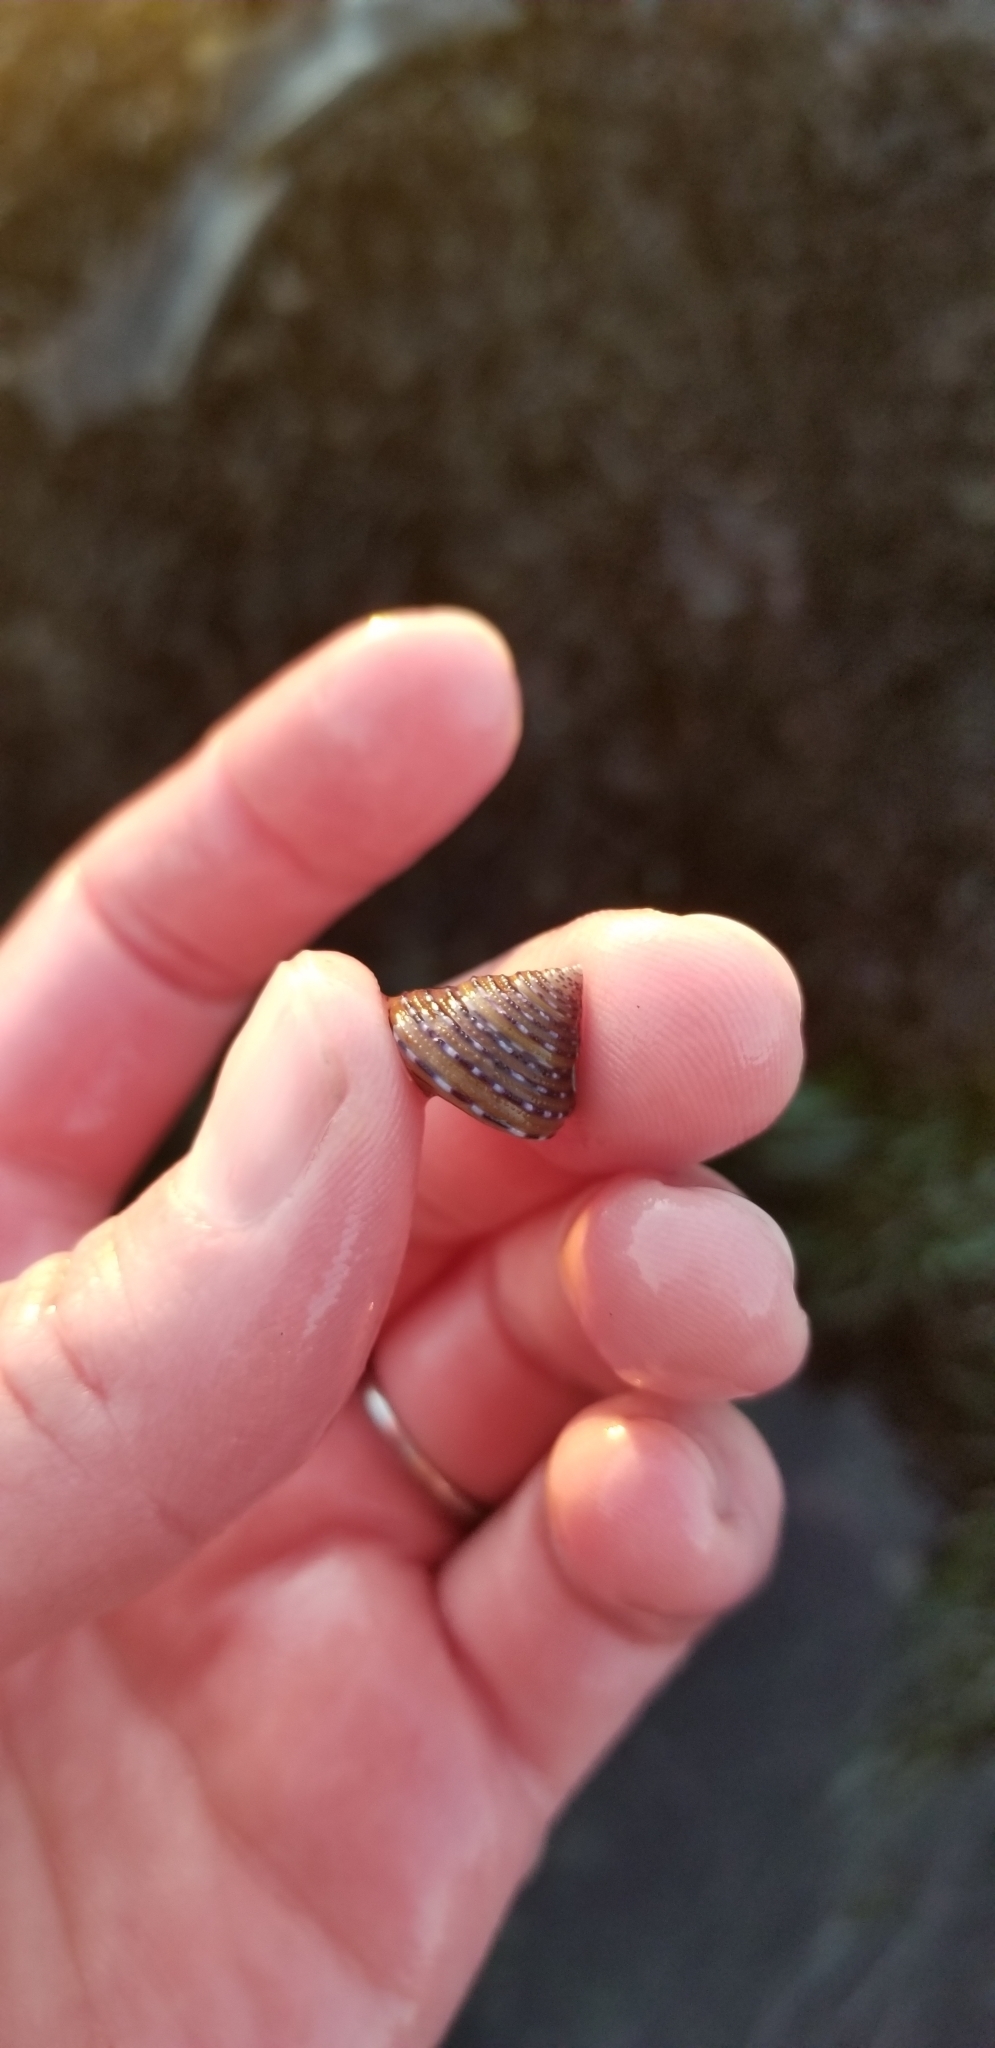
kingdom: Animalia
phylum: Mollusca
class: Gastropoda
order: Trochida
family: Calliostomatidae
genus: Calliostoma
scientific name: Calliostoma tricolor
